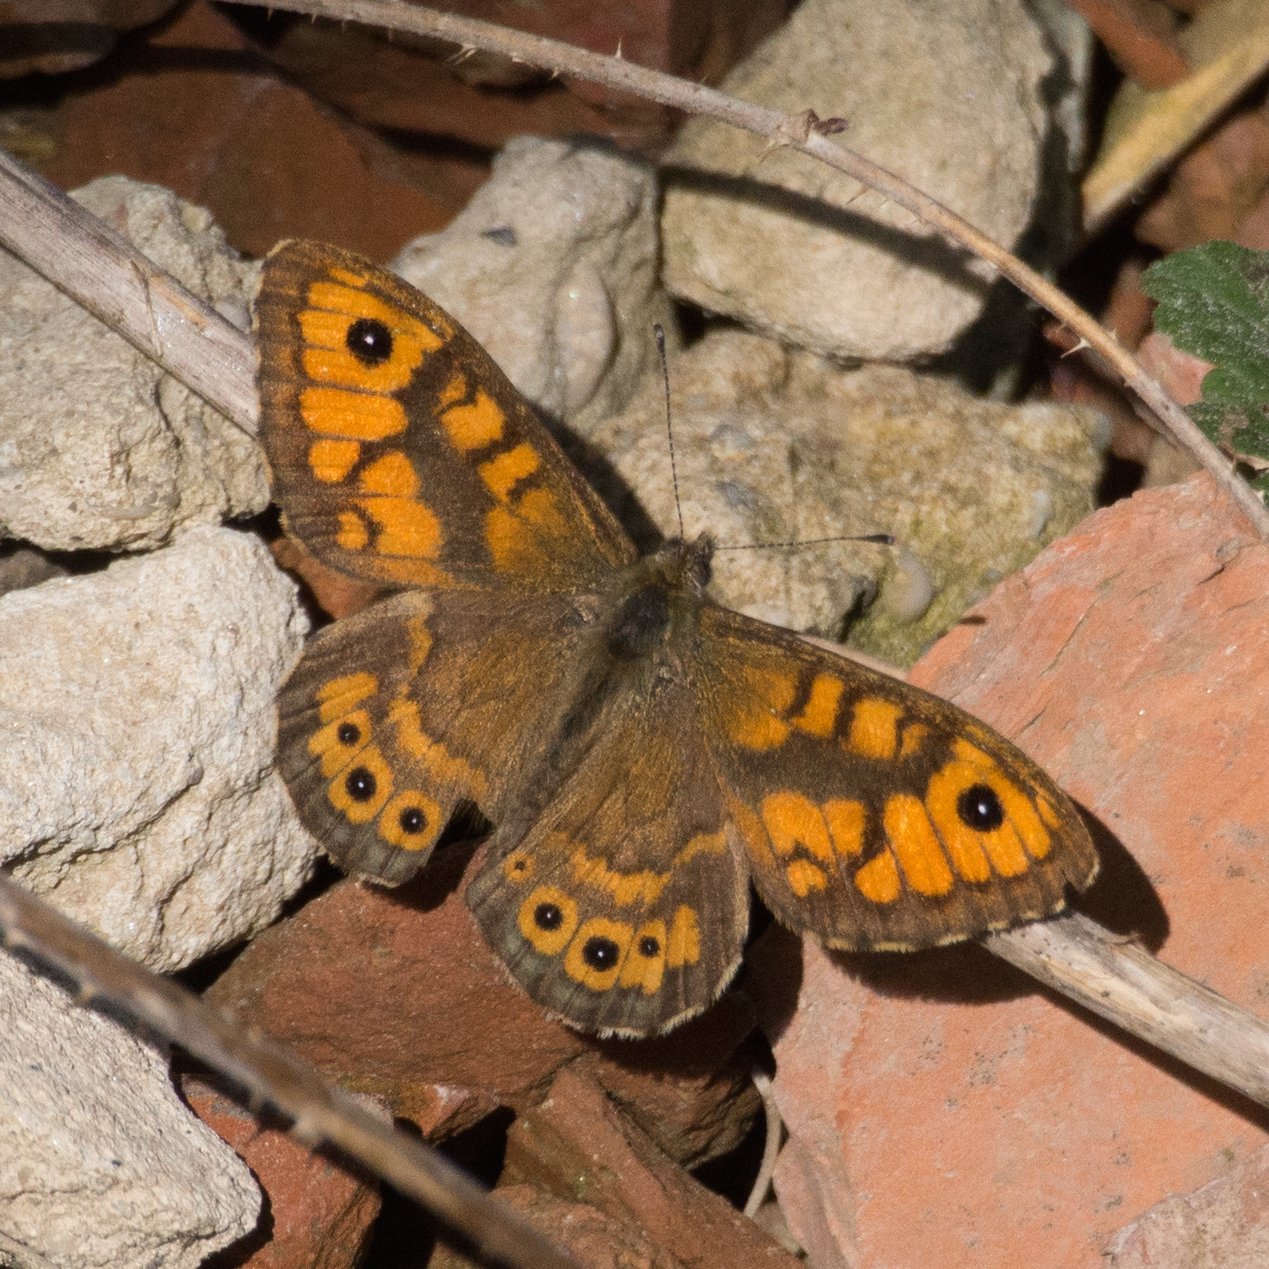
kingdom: Animalia
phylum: Arthropoda
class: Insecta
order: Lepidoptera
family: Nymphalidae
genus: Pararge
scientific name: Pararge Lasiommata megera
